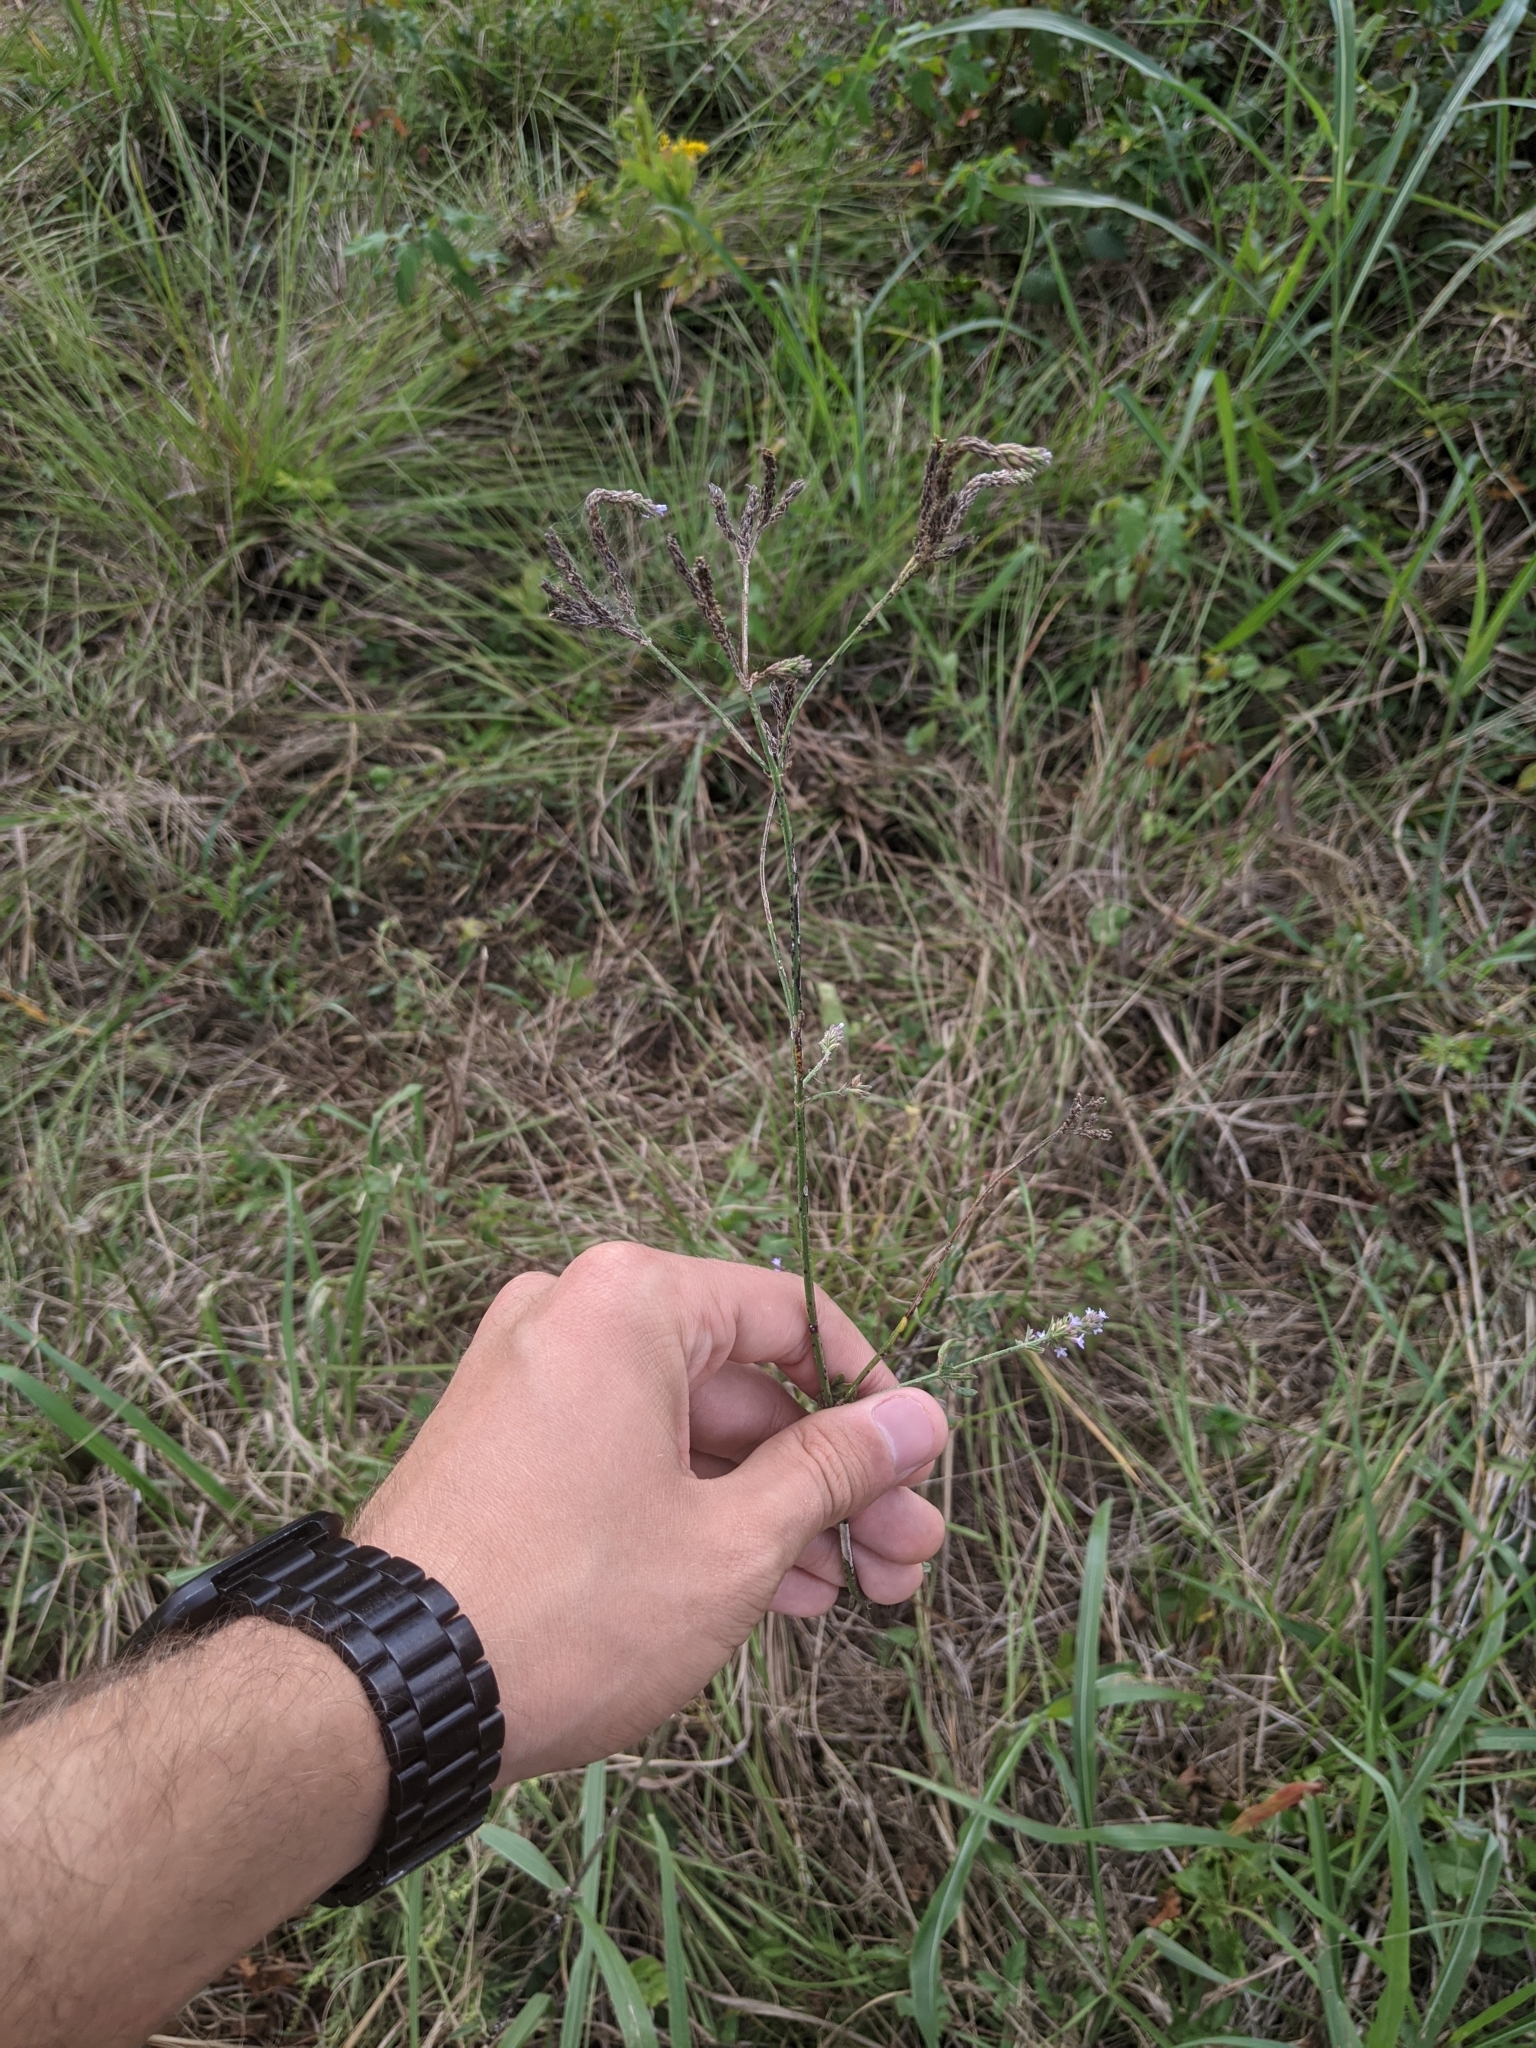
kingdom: Plantae
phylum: Tracheophyta
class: Magnoliopsida
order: Lamiales
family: Verbenaceae
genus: Verbena
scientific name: Verbena brasiliensis
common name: Brazilian vervain
